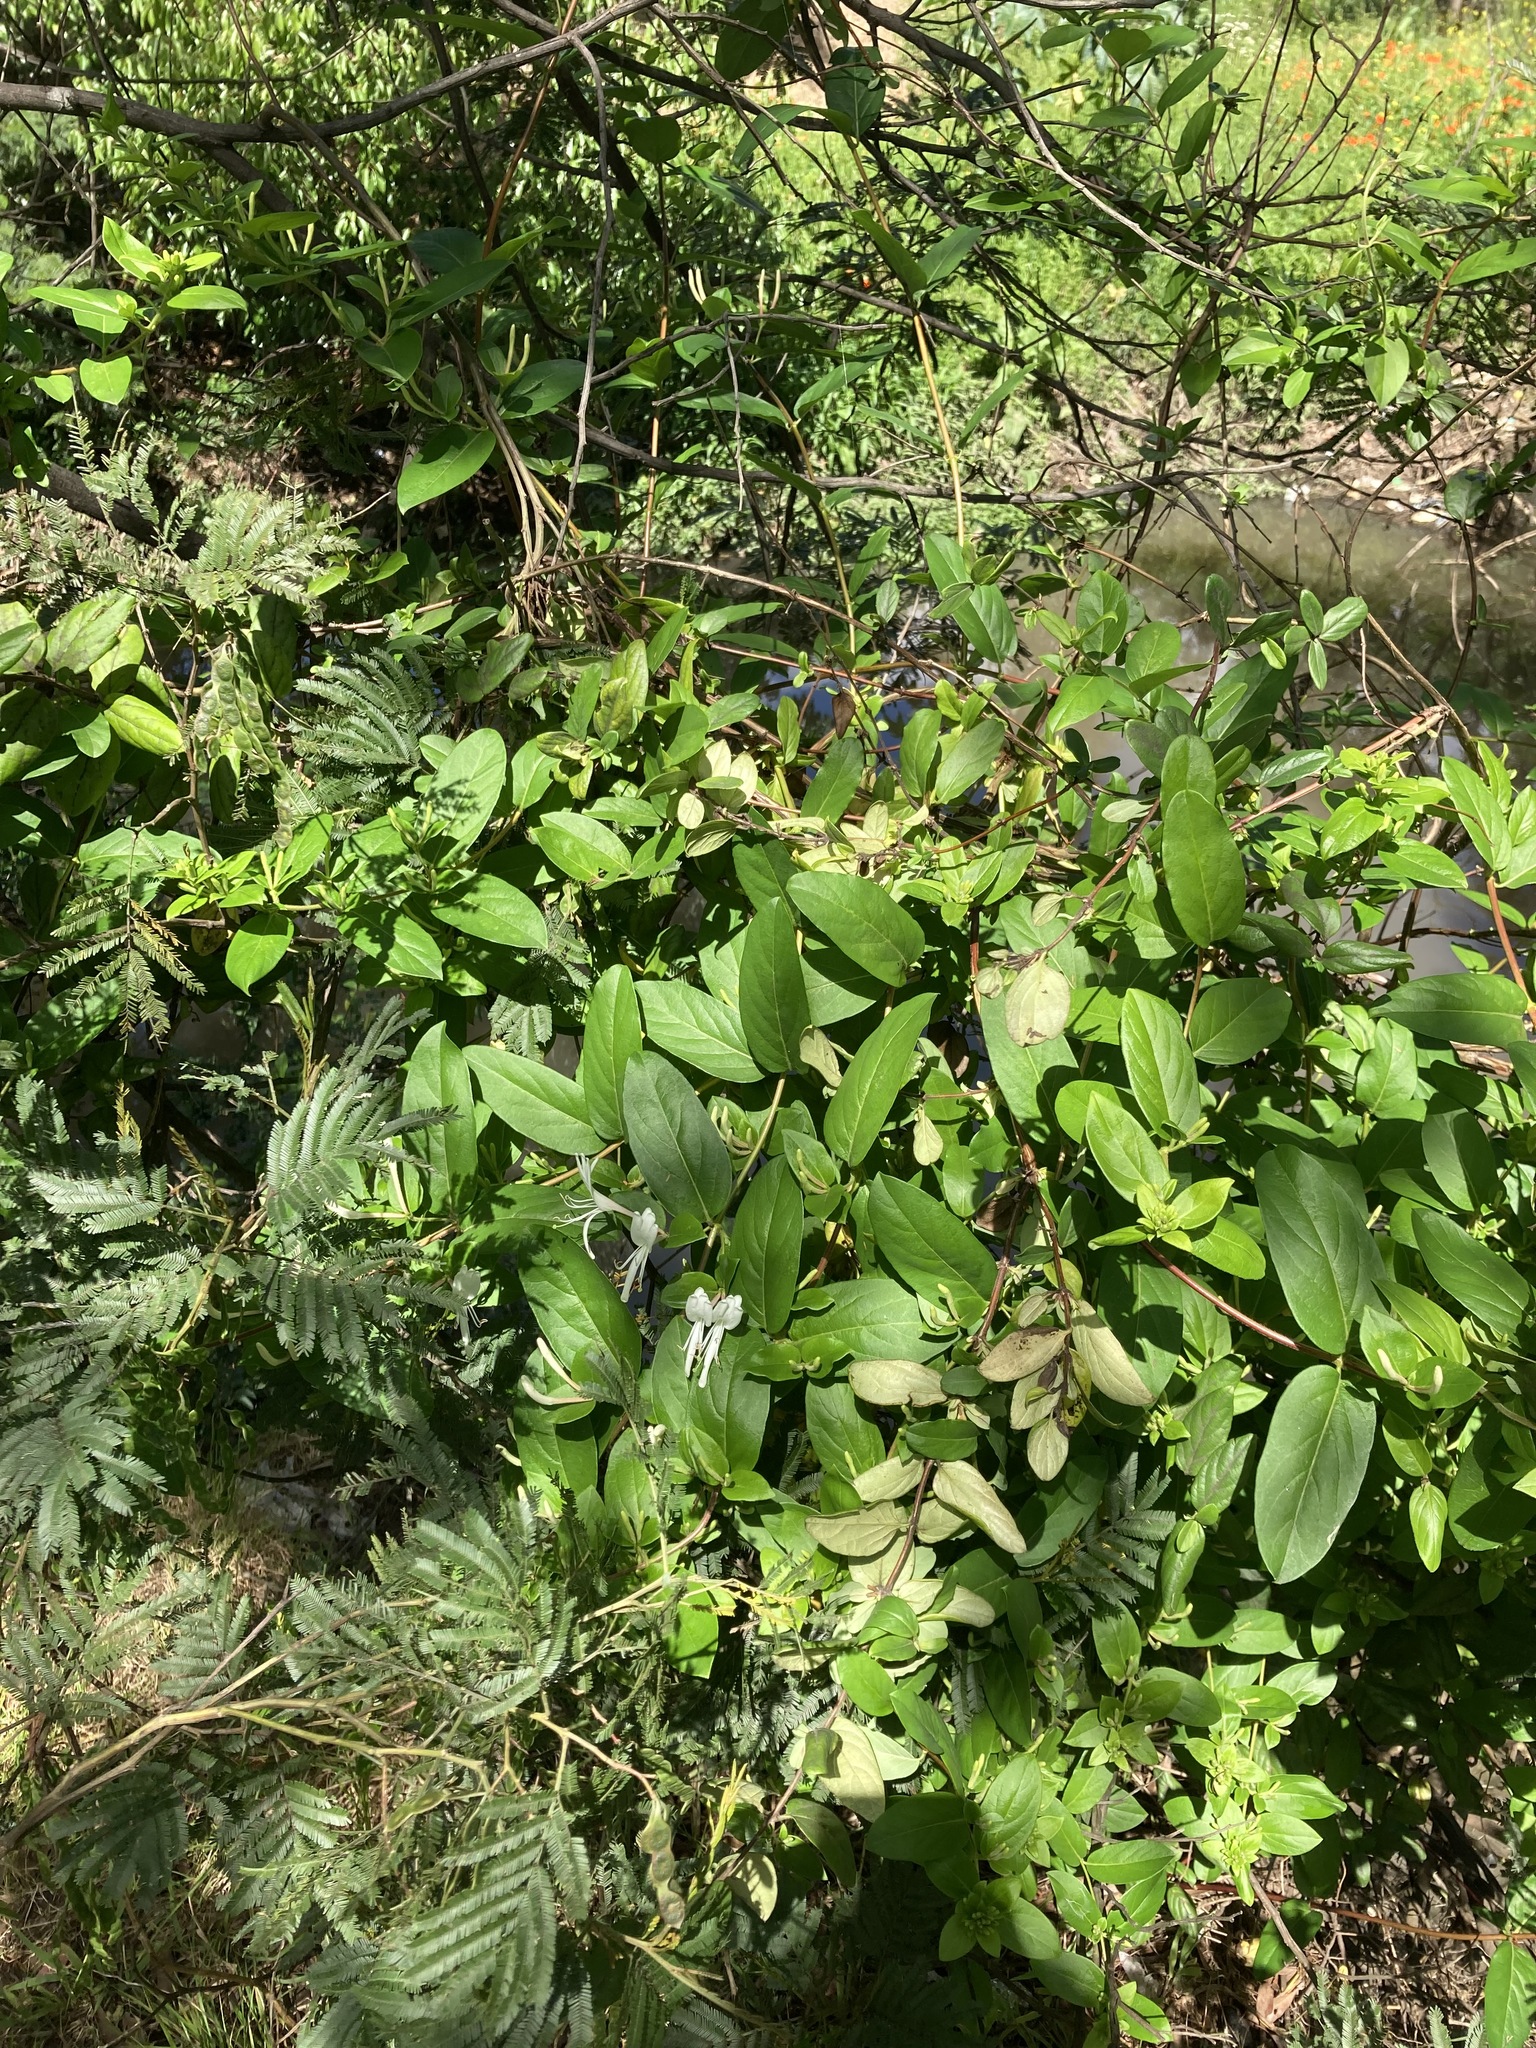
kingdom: Plantae
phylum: Tracheophyta
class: Magnoliopsida
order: Dipsacales
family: Caprifoliaceae
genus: Lonicera
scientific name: Lonicera japonica
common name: Japanese honeysuckle
